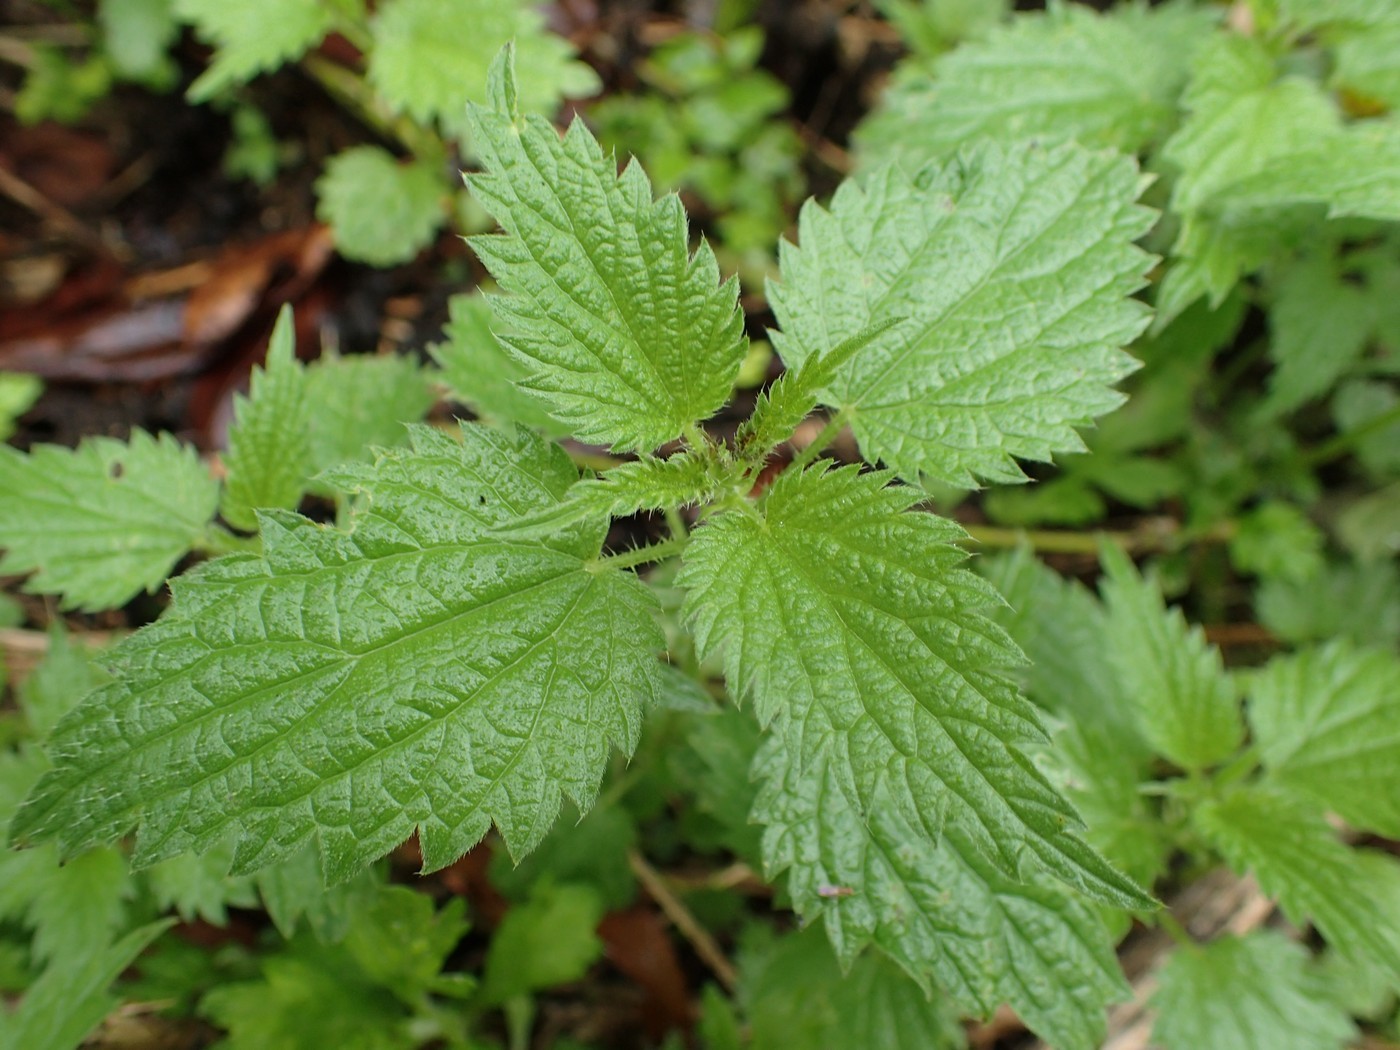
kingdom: Plantae
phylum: Tracheophyta
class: Magnoliopsida
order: Rosales
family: Urticaceae
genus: Urtica
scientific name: Urtica dioica
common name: Common nettle
